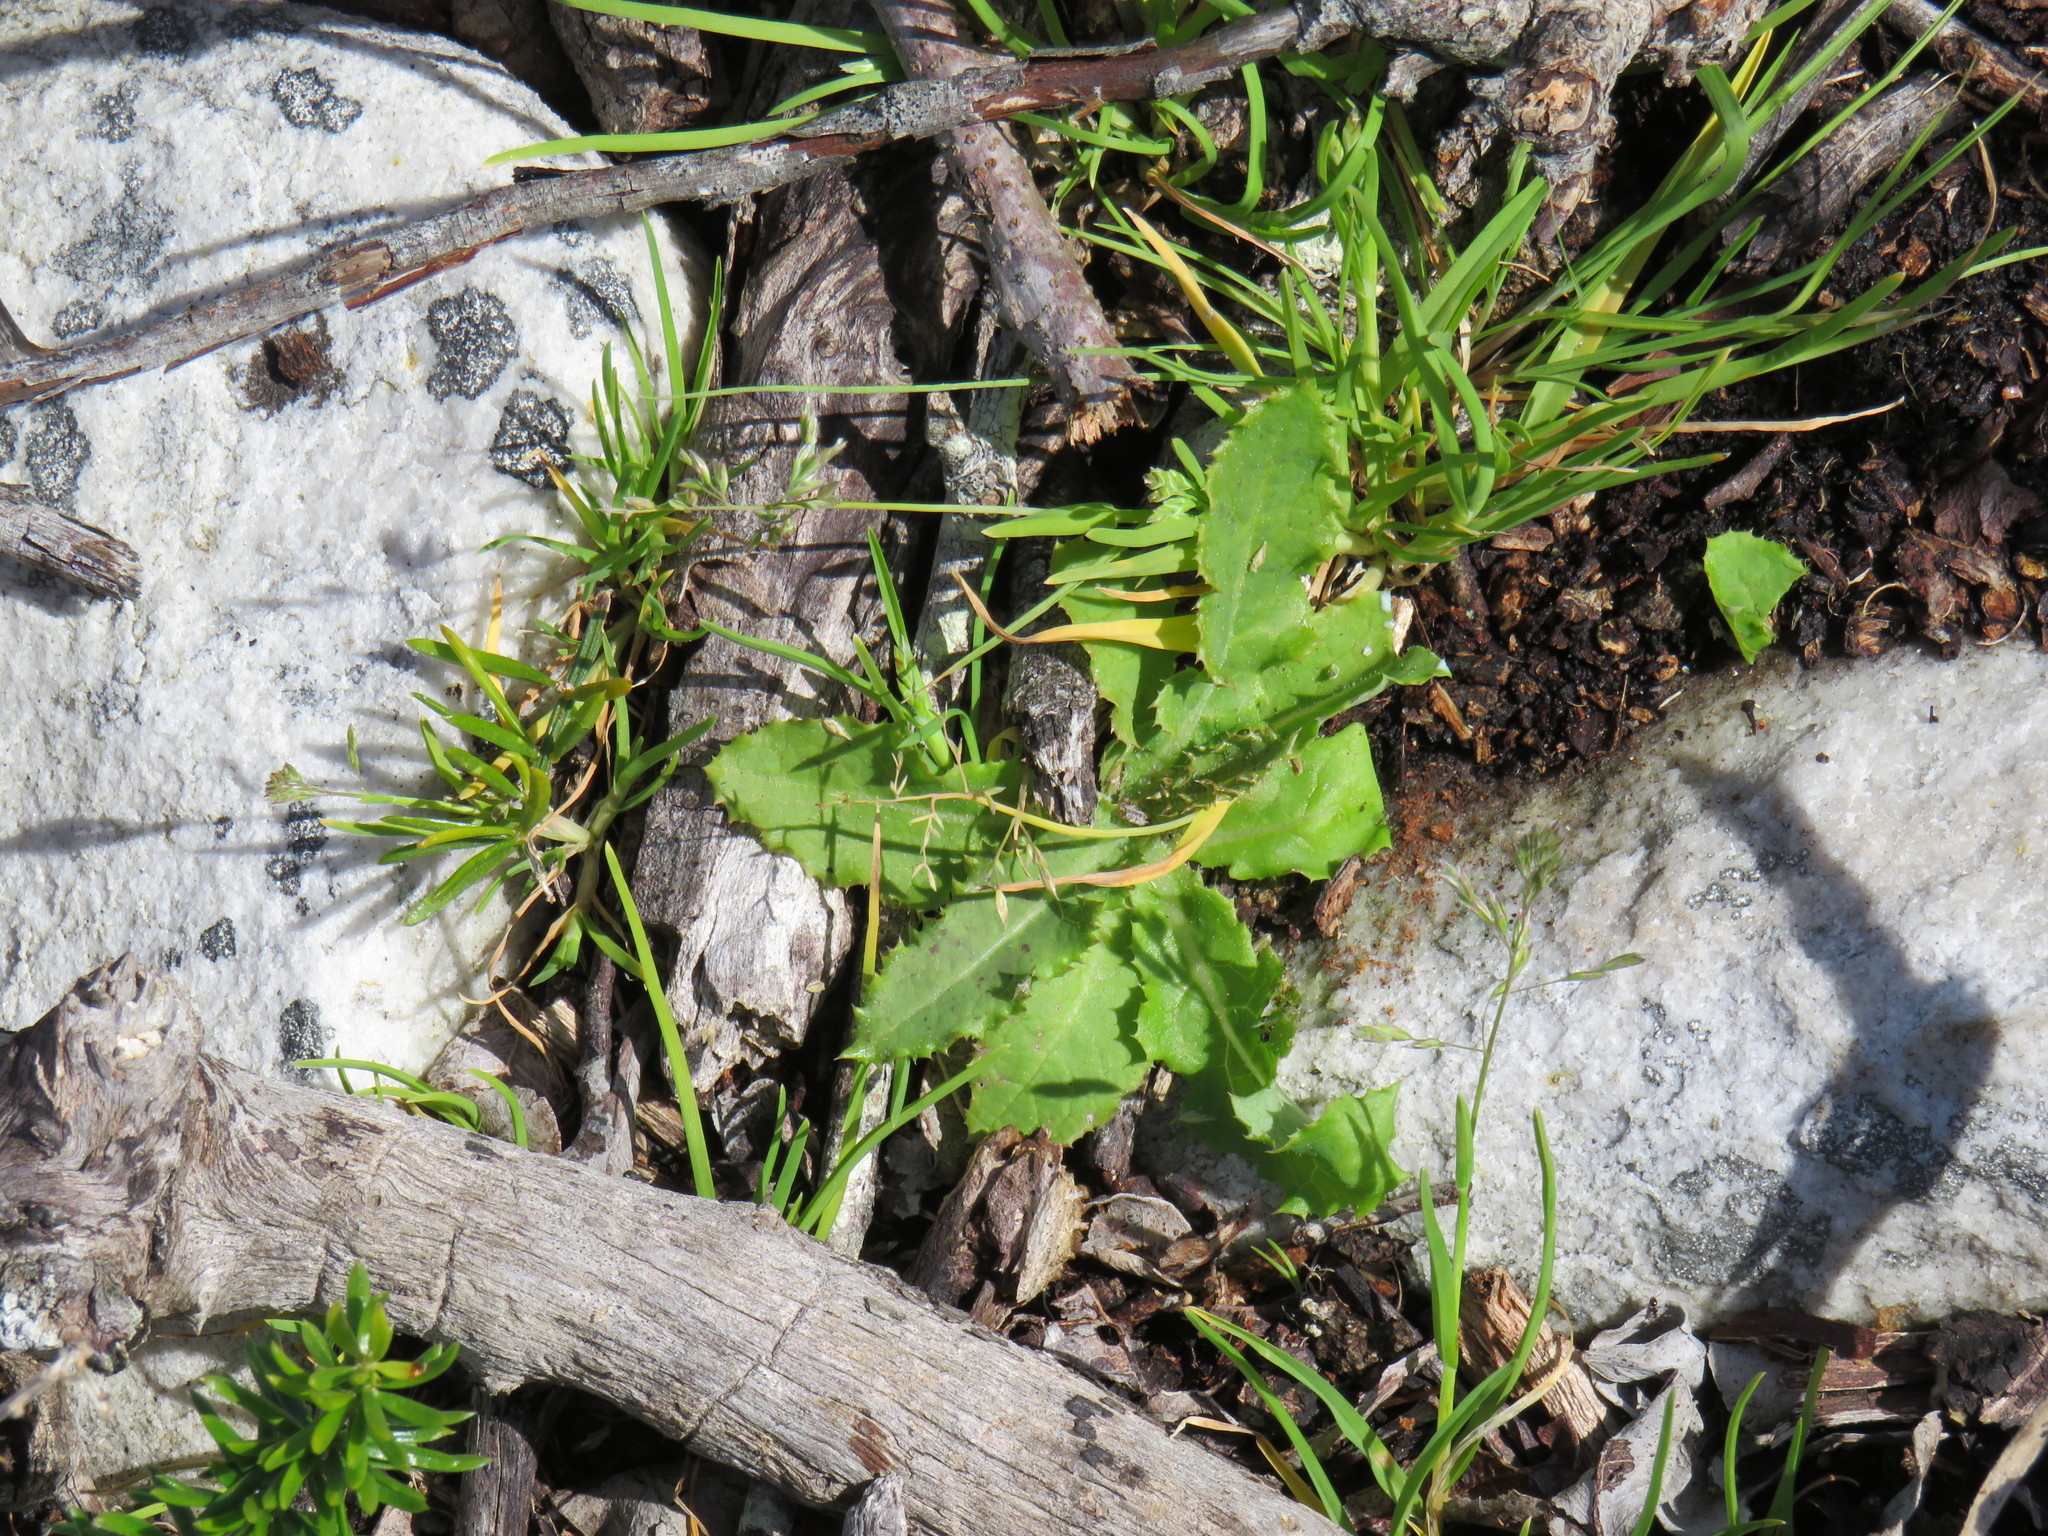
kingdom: Plantae
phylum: Tracheophyta
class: Magnoliopsida
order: Asterales
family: Asteraceae
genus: Sonchus
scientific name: Sonchus asper
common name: Prickly sow-thistle
